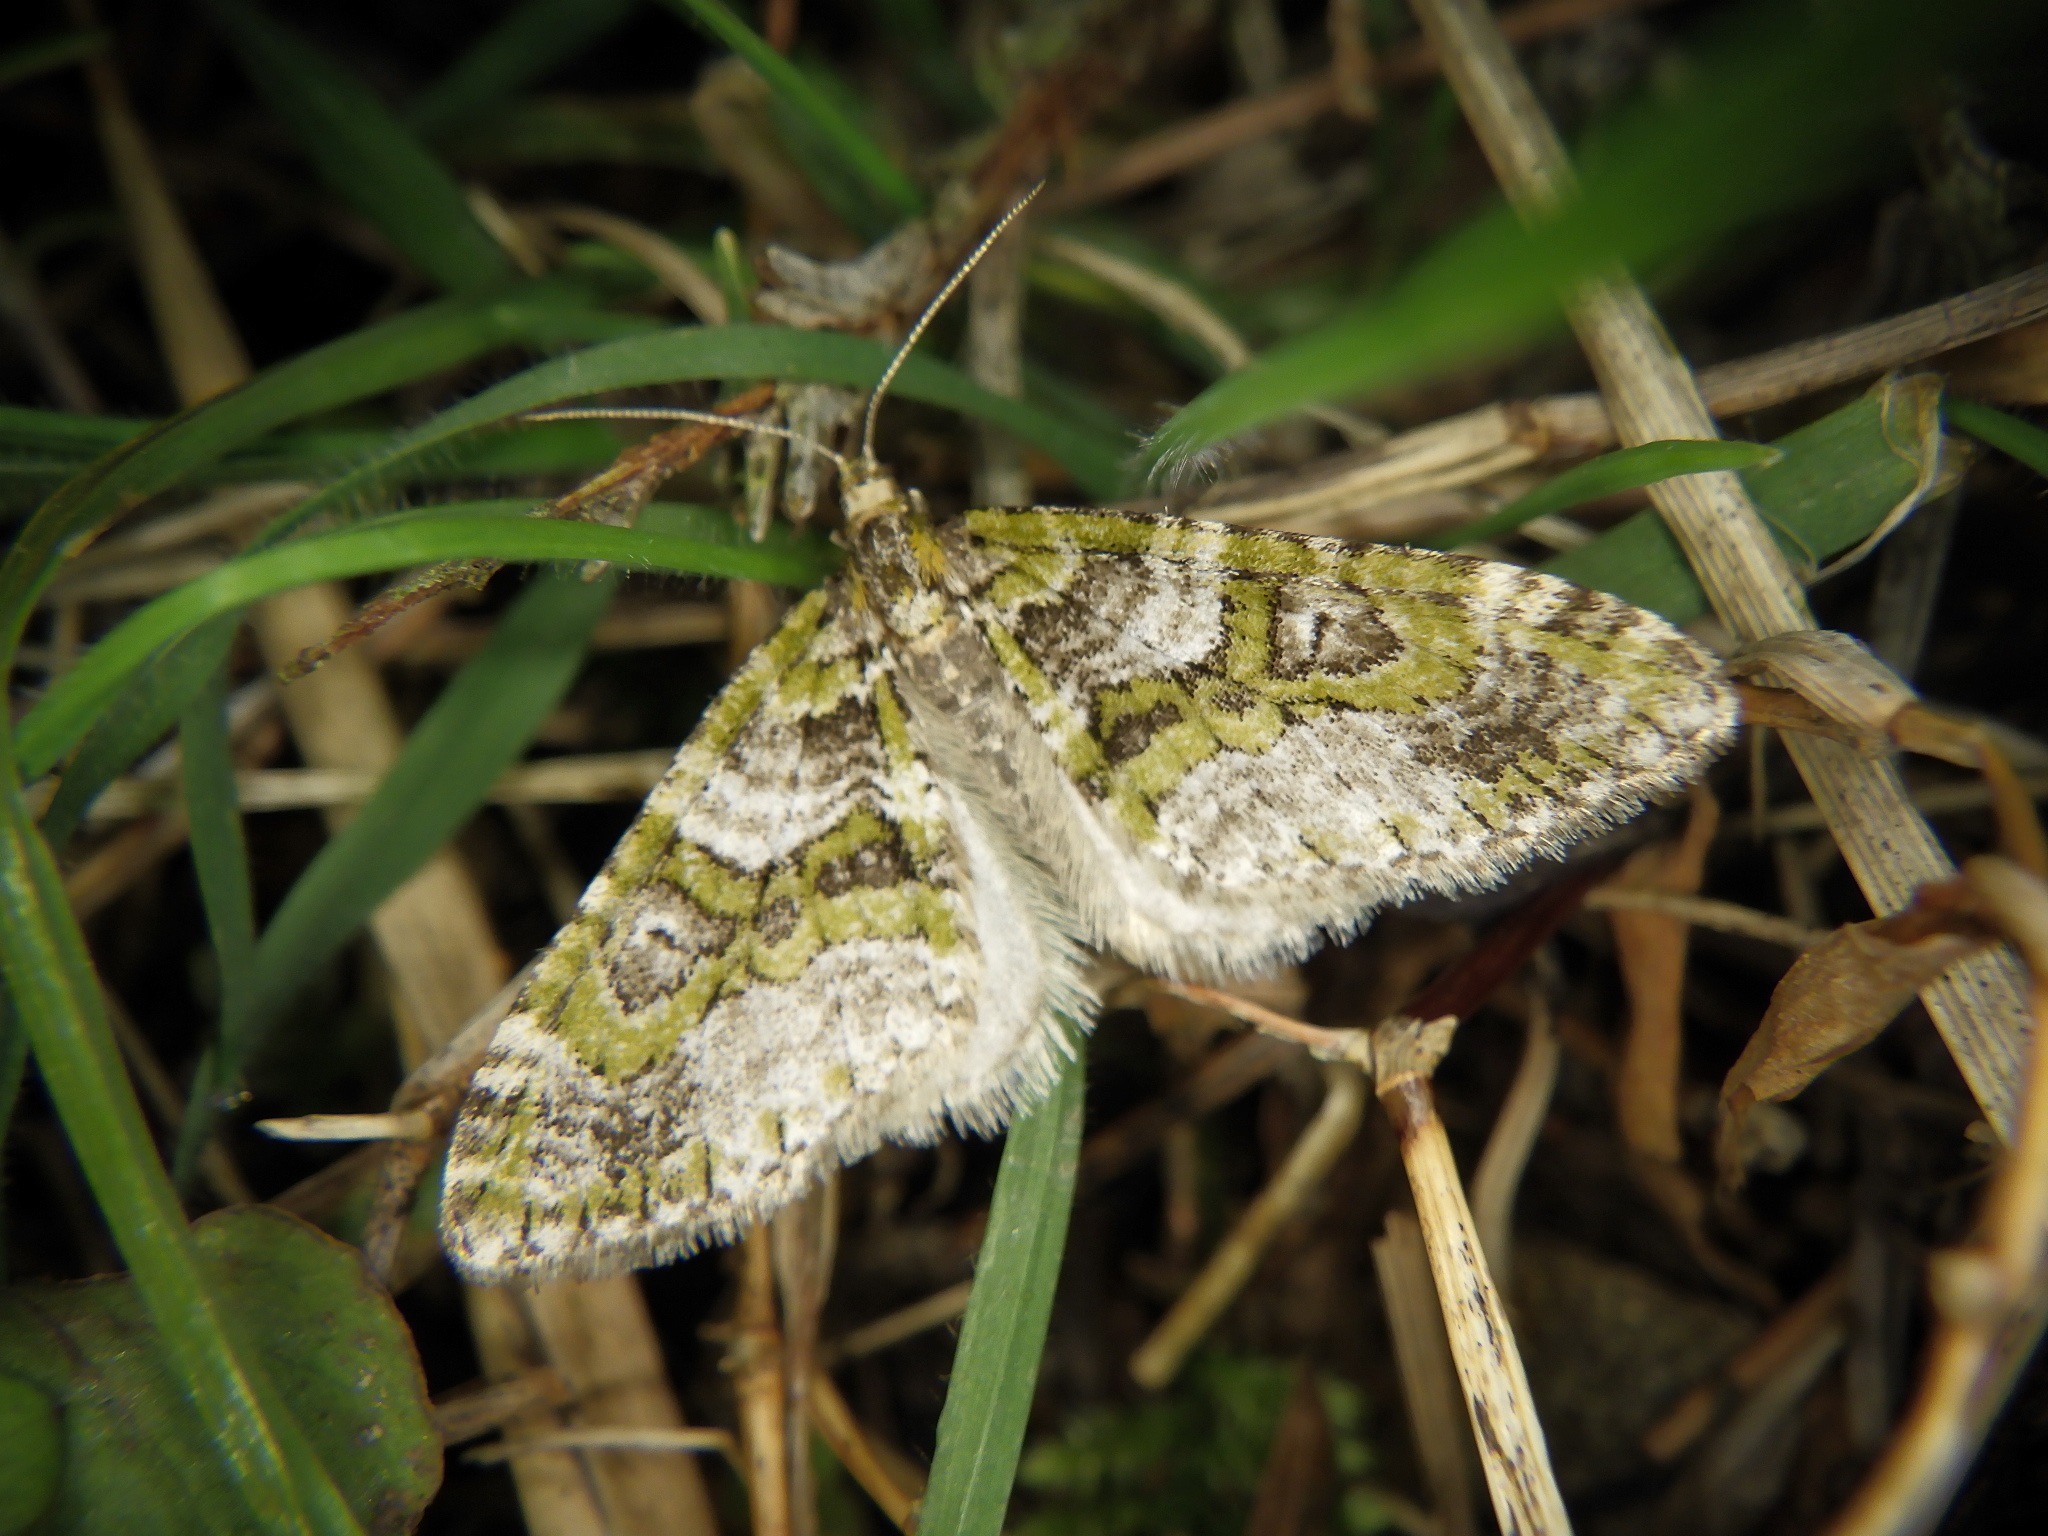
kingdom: Animalia
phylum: Arthropoda
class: Insecta
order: Lepidoptera
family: Geometridae
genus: Esakiopteryx
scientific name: Esakiopteryx volitans
